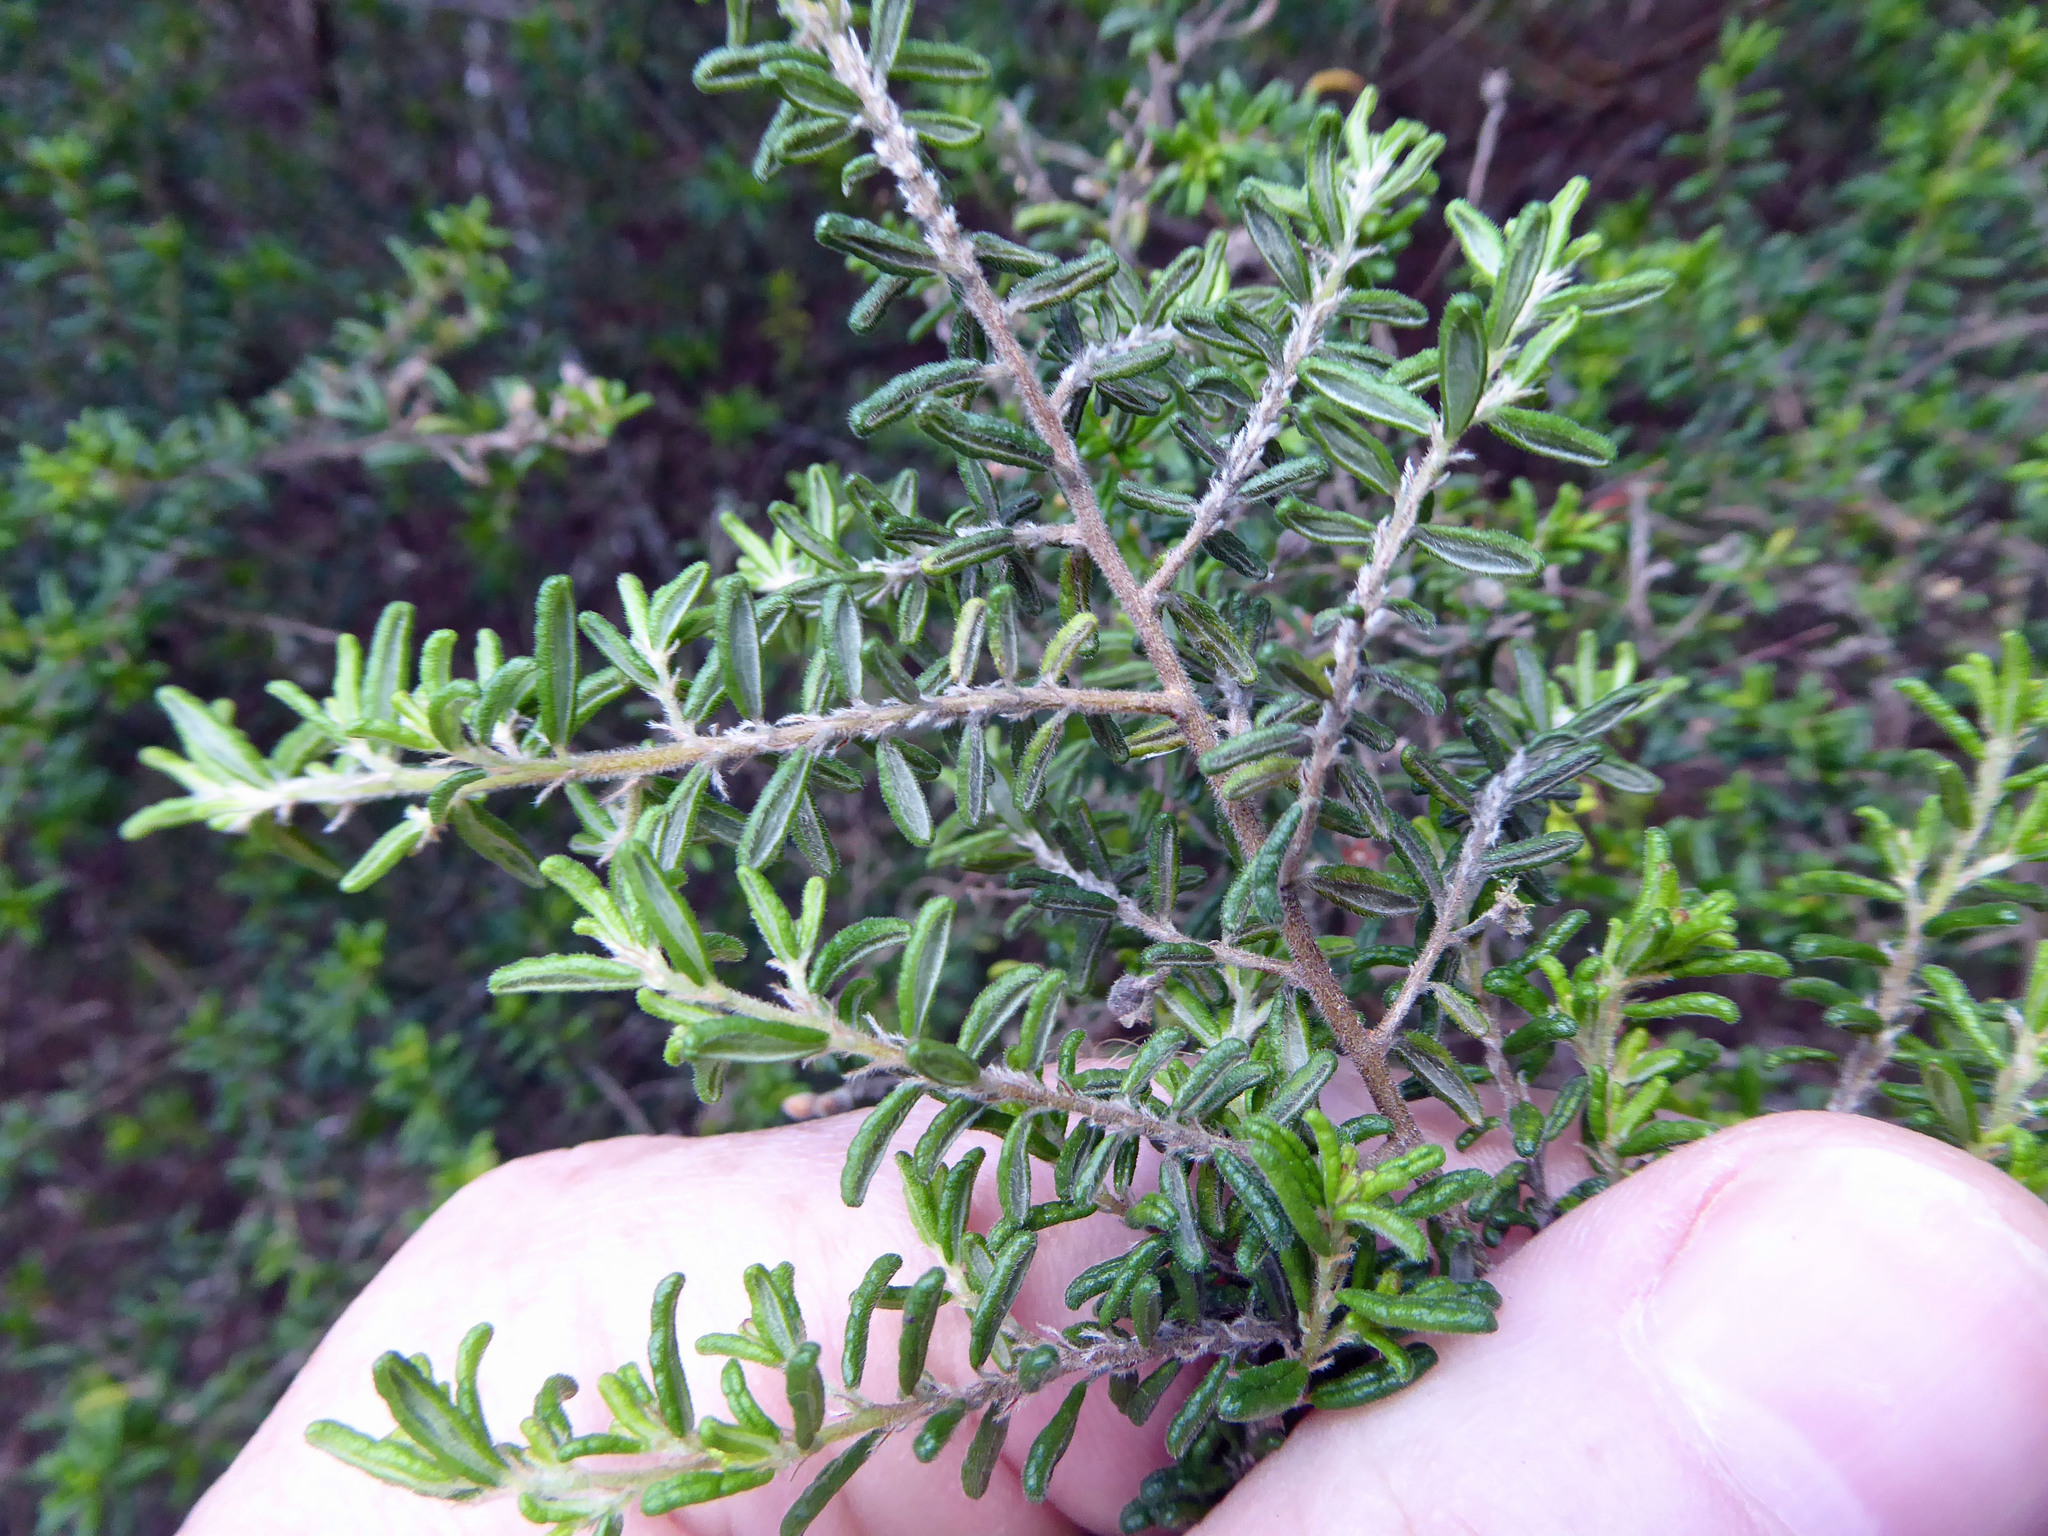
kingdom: Plantae
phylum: Tracheophyta
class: Magnoliopsida
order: Rosales
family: Rhamnaceae
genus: Pomaderris
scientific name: Pomaderris amoena
